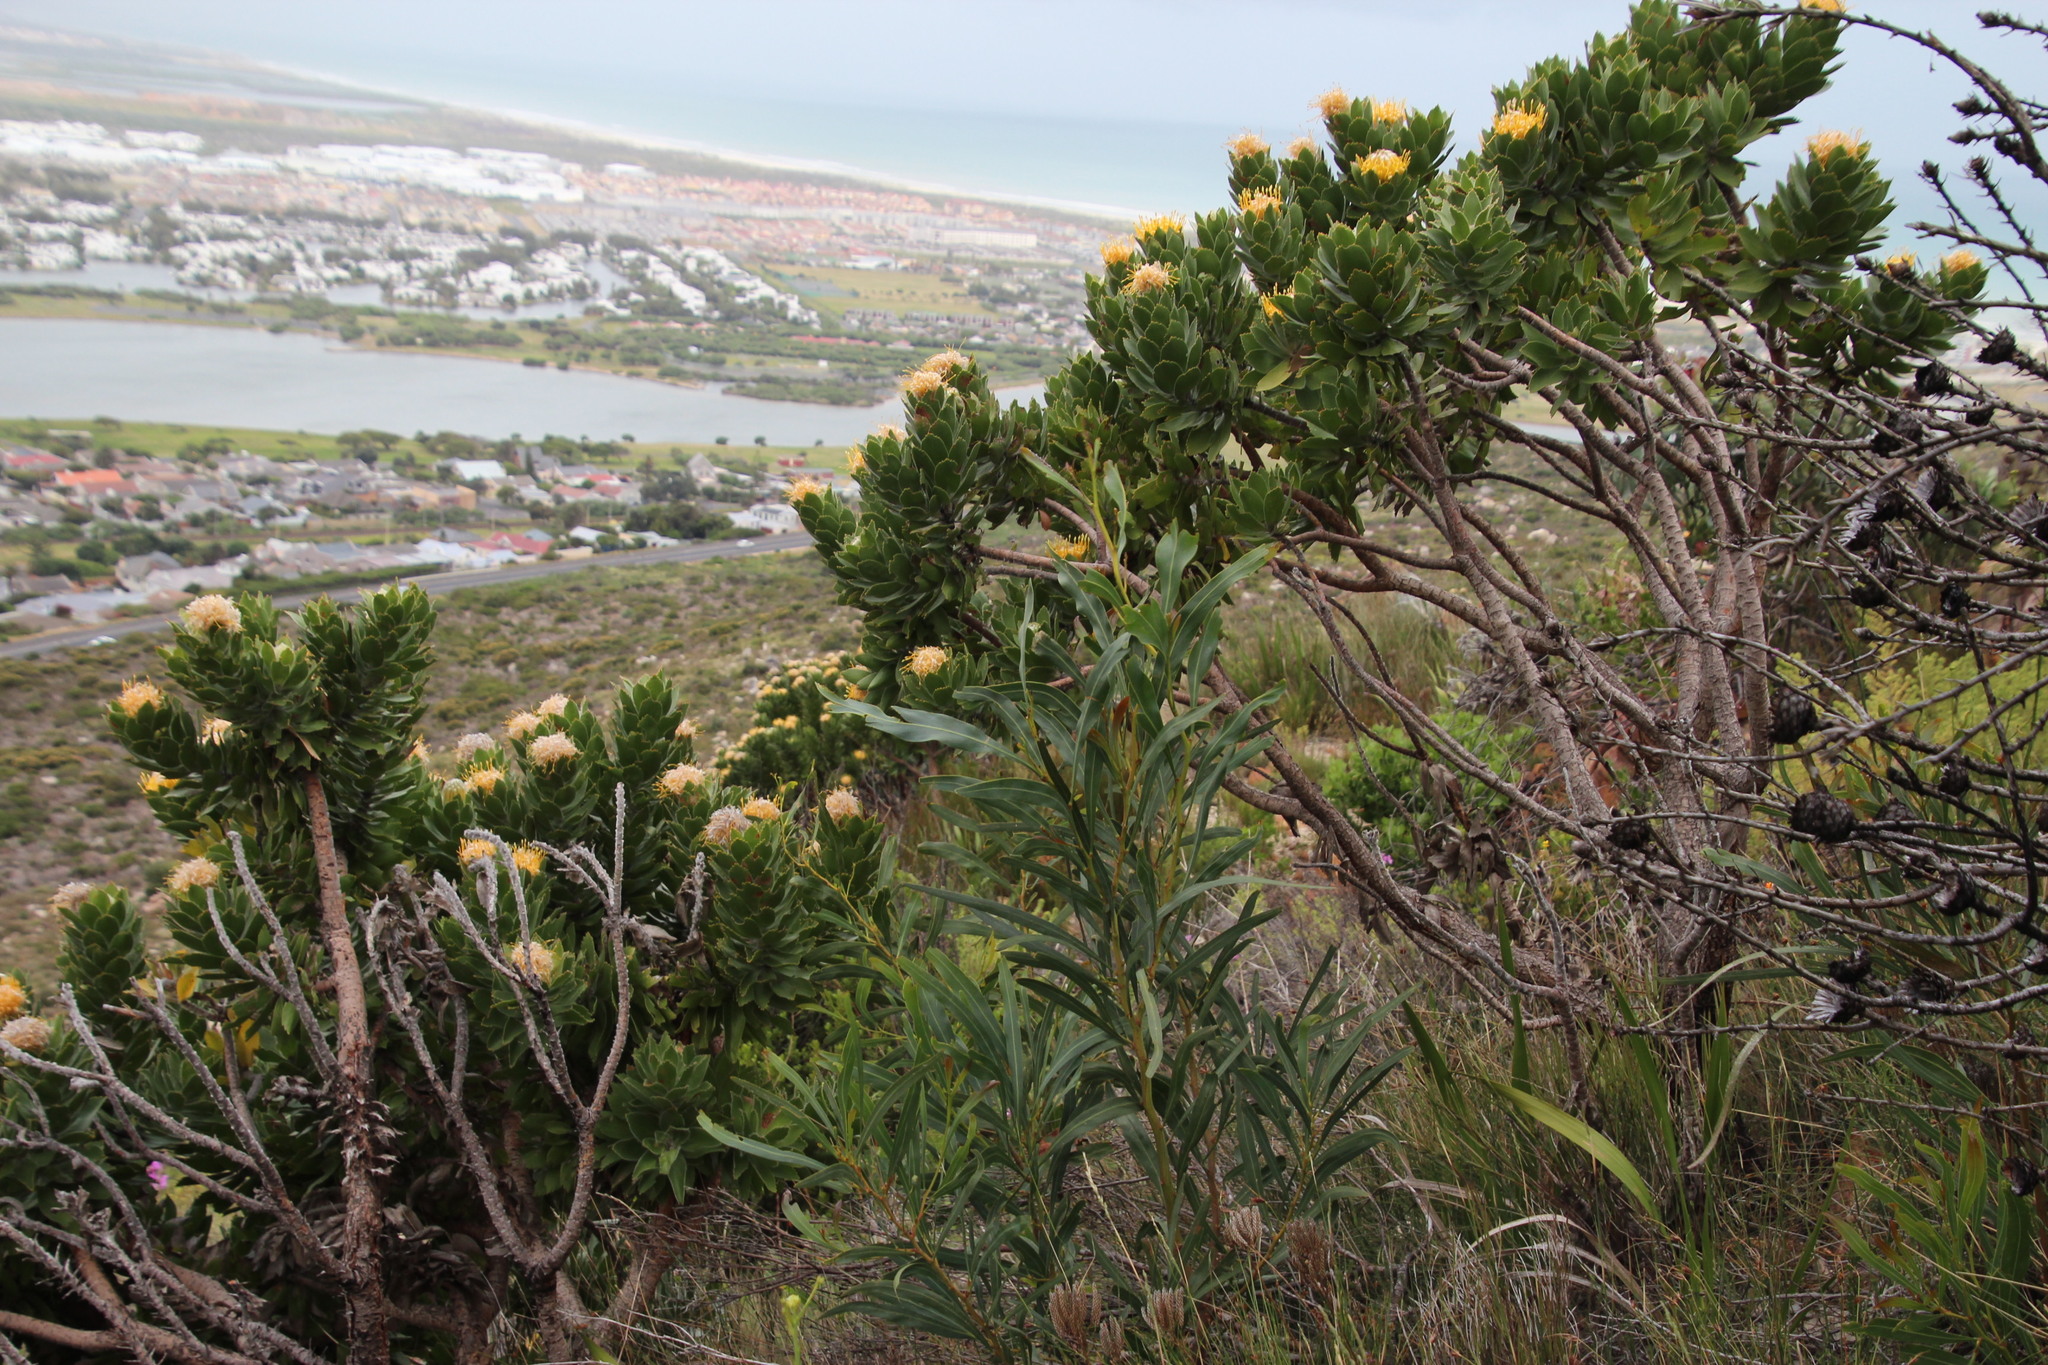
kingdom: Plantae
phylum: Tracheophyta
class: Magnoliopsida
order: Fabales
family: Fabaceae
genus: Acacia
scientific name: Acacia saligna
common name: Orange wattle
